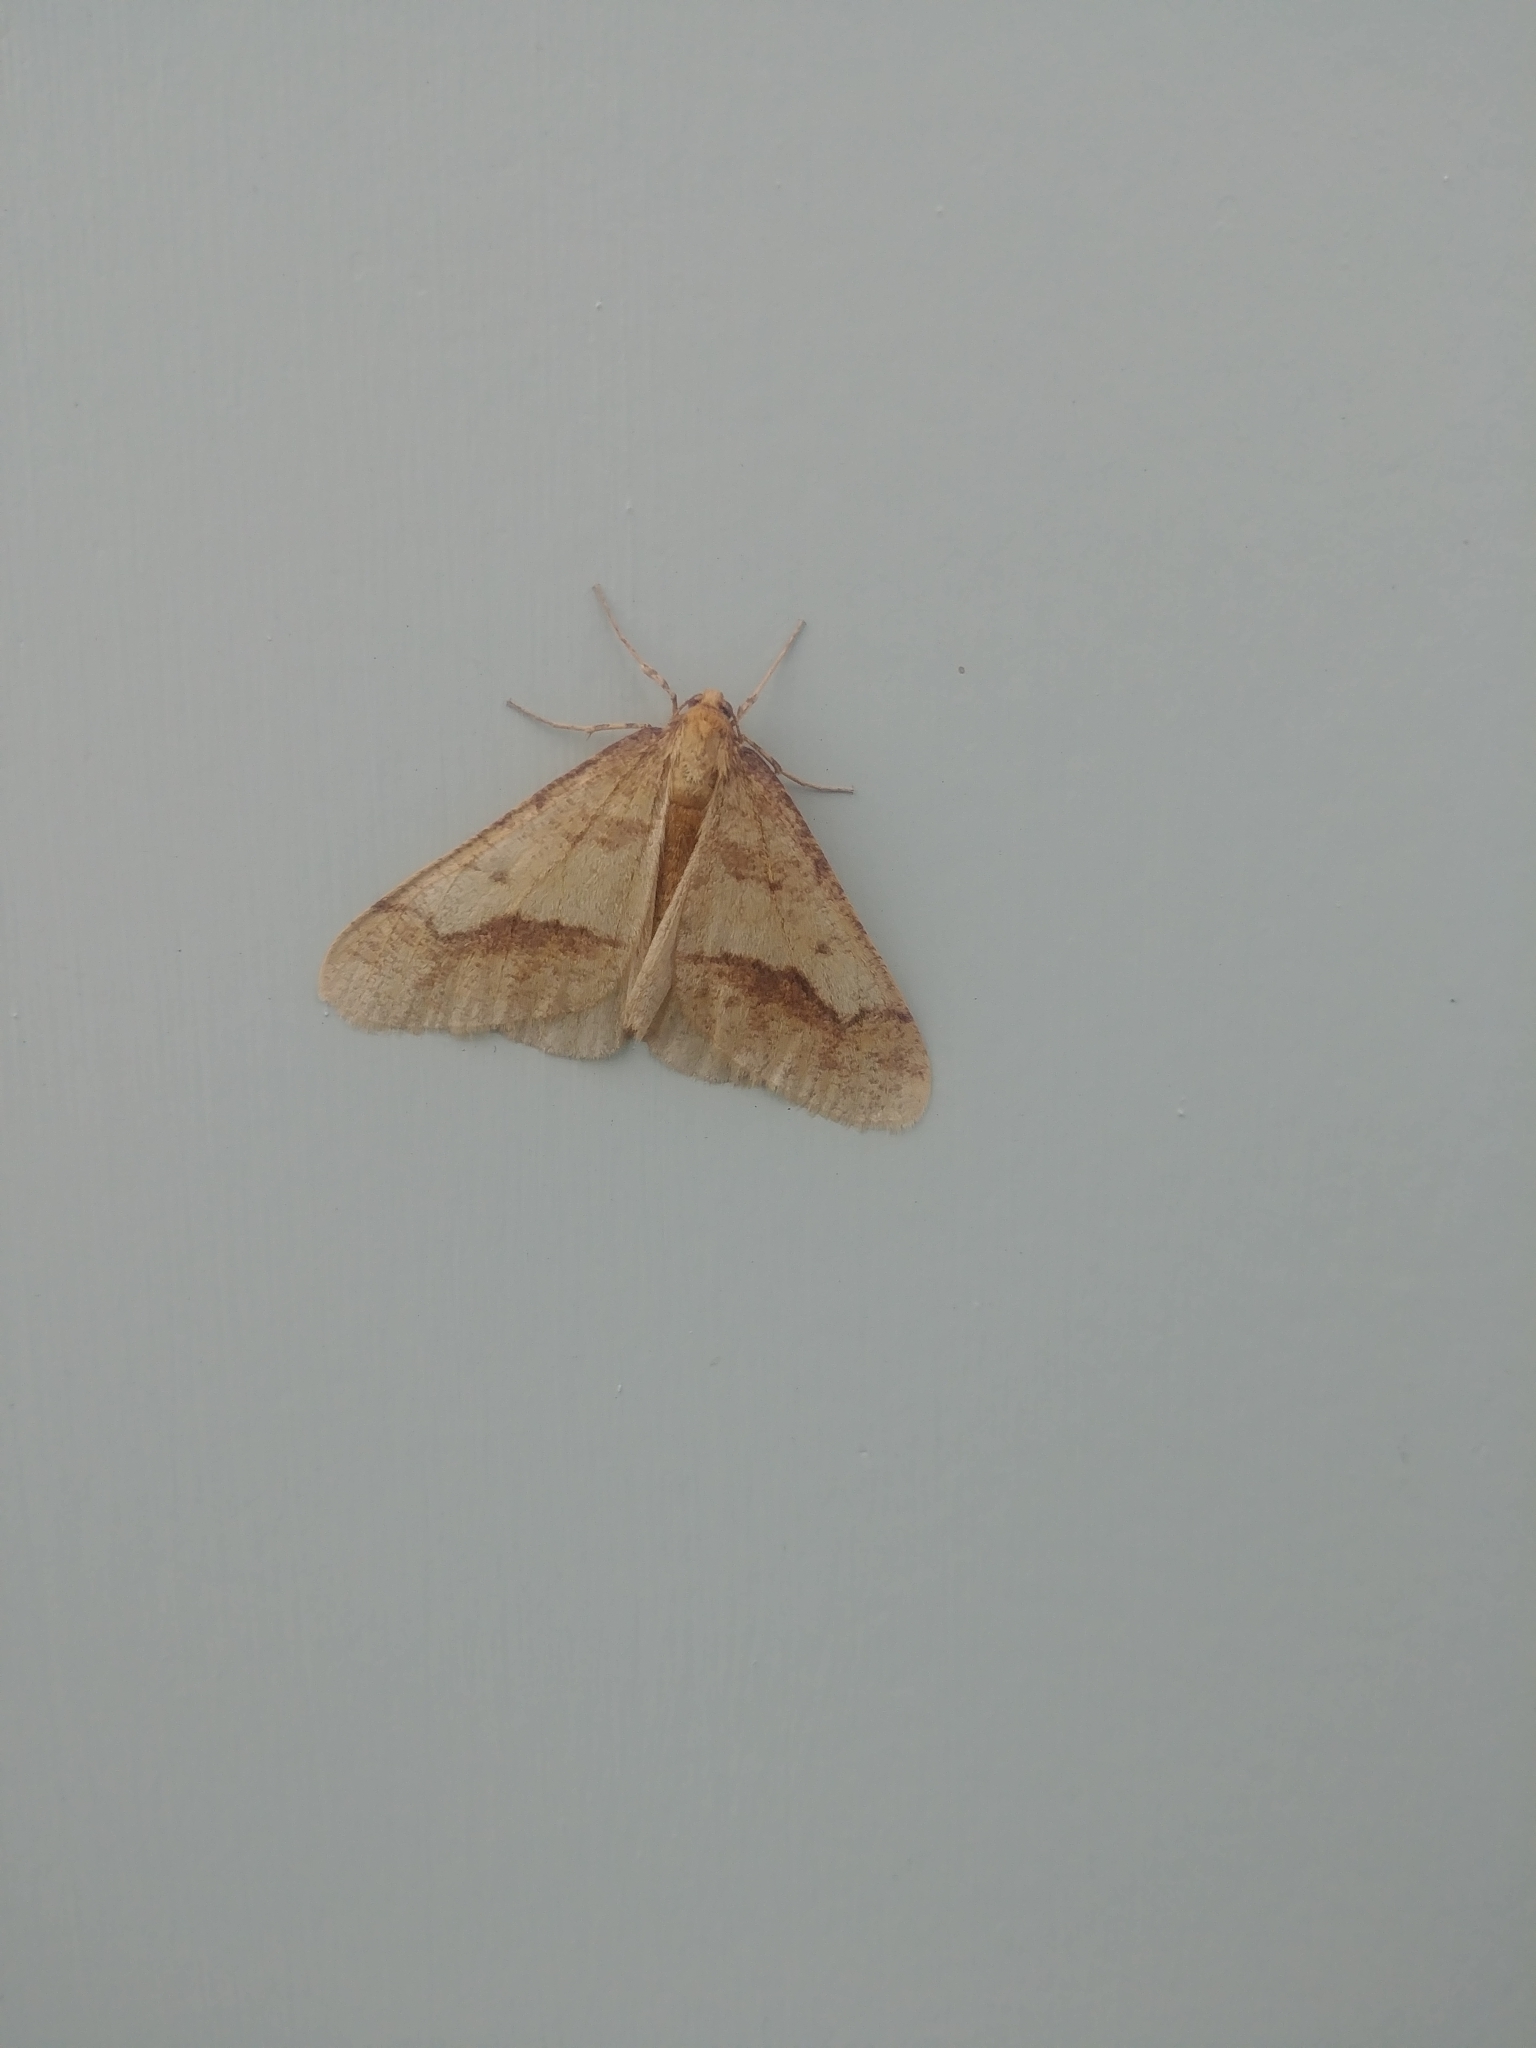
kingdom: Animalia
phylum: Arthropoda
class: Insecta
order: Lepidoptera
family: Geometridae
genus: Erannis
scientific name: Erannis tiliaria
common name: Linden looper
